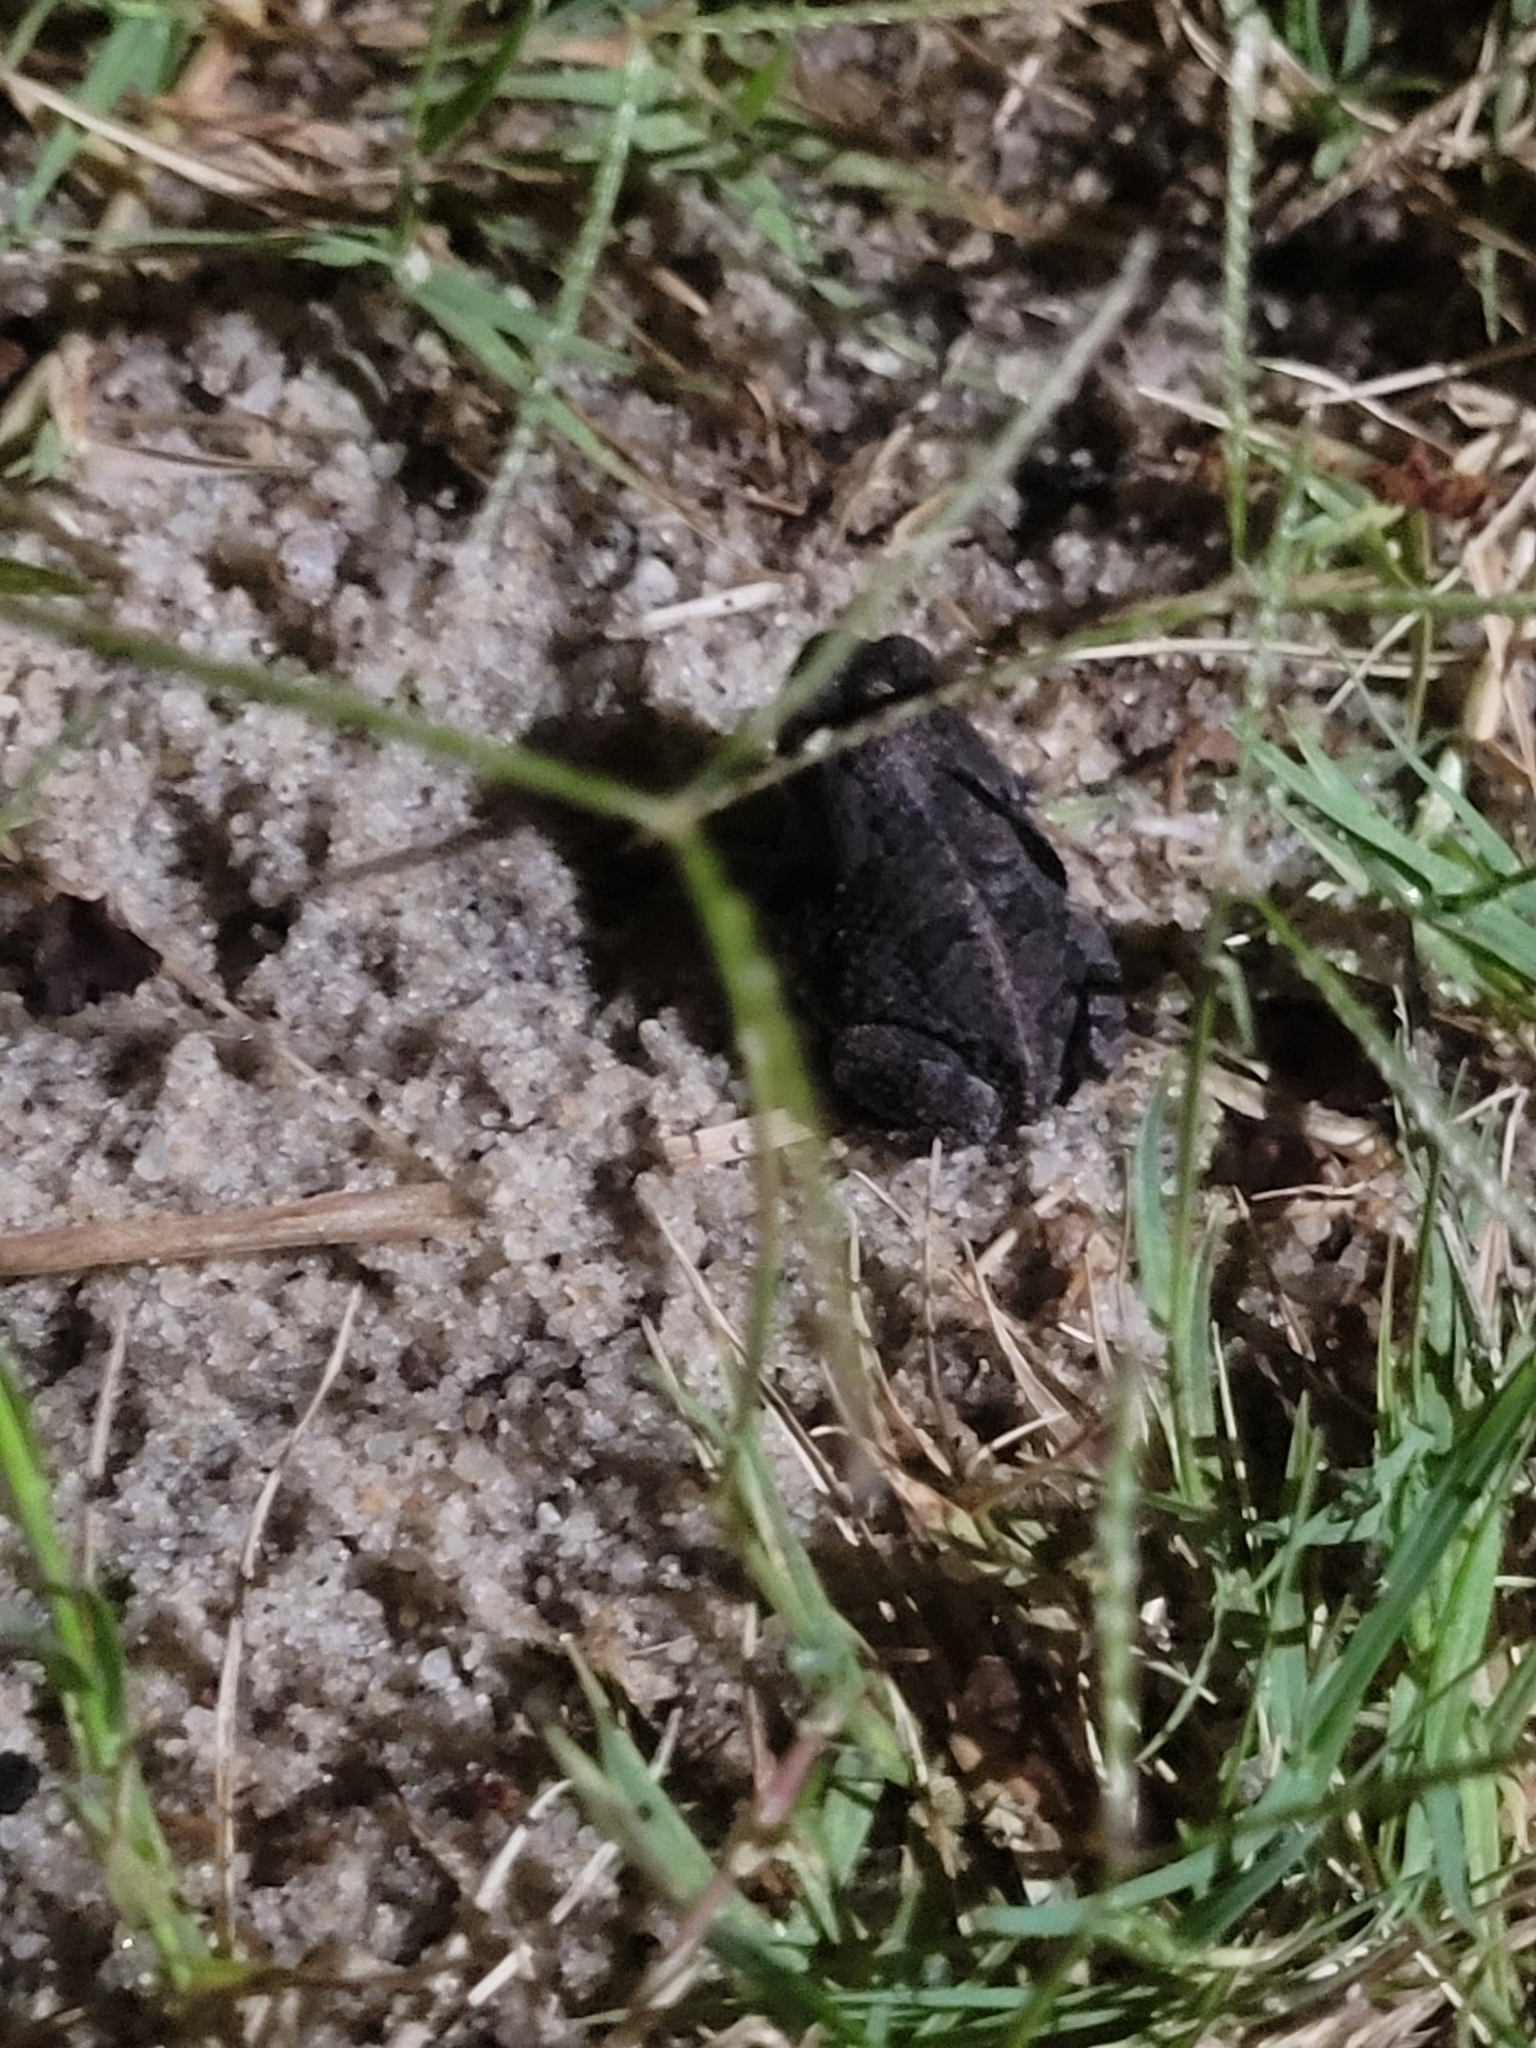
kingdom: Animalia
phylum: Chordata
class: Amphibia
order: Anura
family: Bufonidae
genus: Anaxyrus
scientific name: Anaxyrus terrestris
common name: Southern toad
